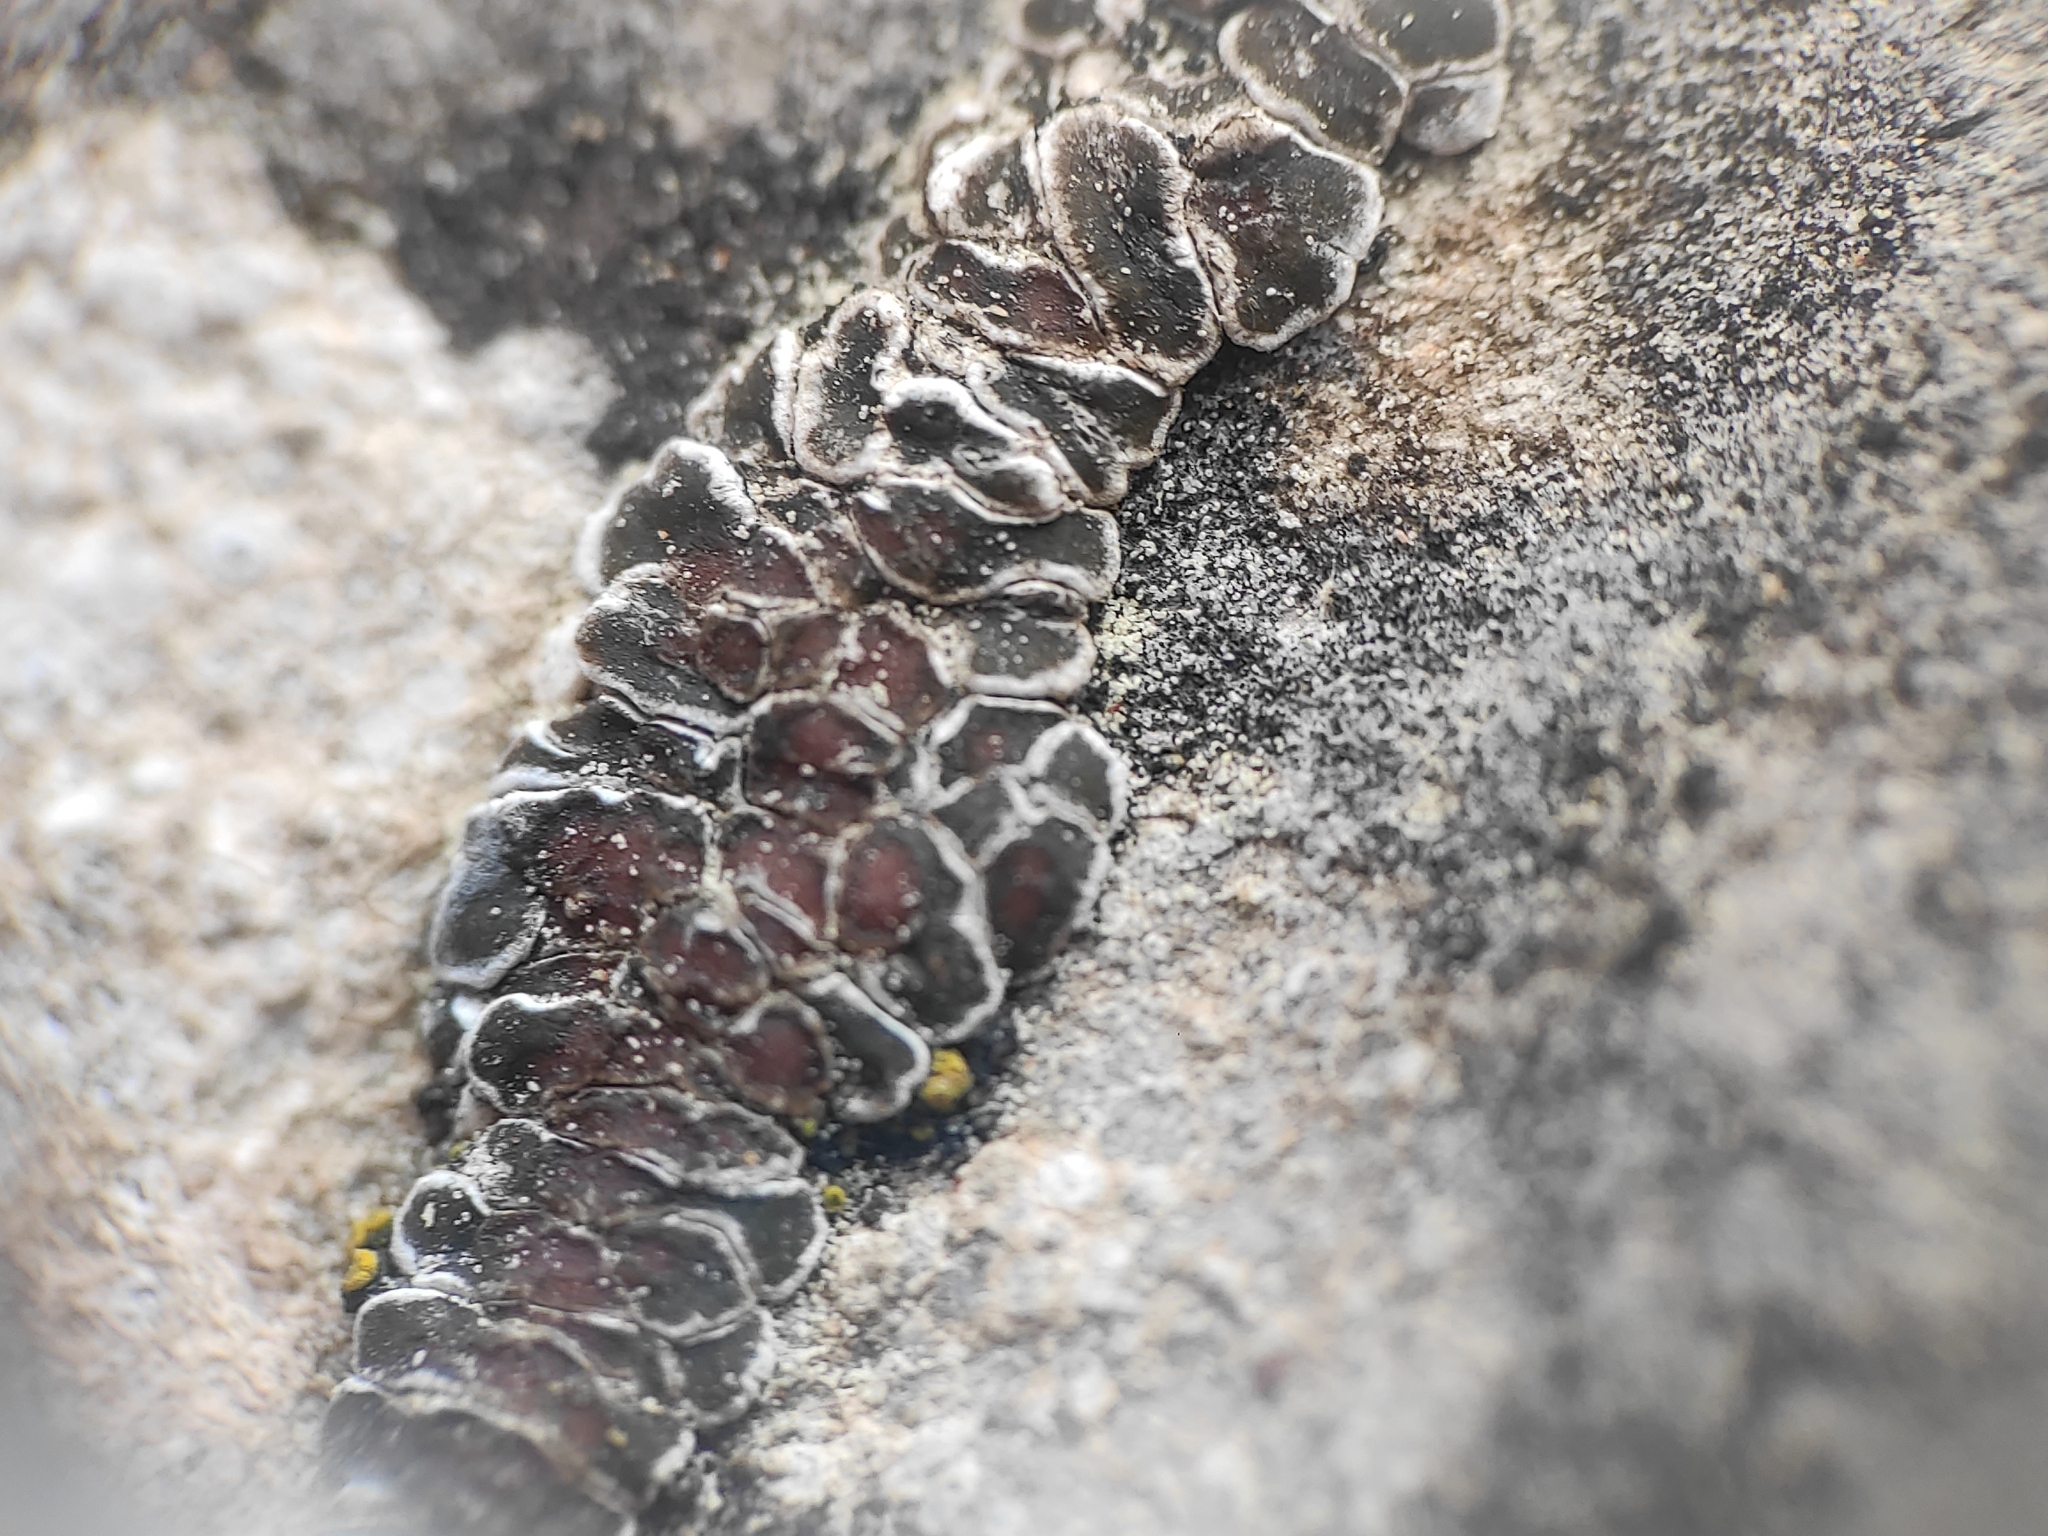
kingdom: Fungi
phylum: Ascomycota
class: Lecanoromycetes
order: Acarosporales
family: Acarosporaceae
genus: Acarospora
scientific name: Acarospora cervina
